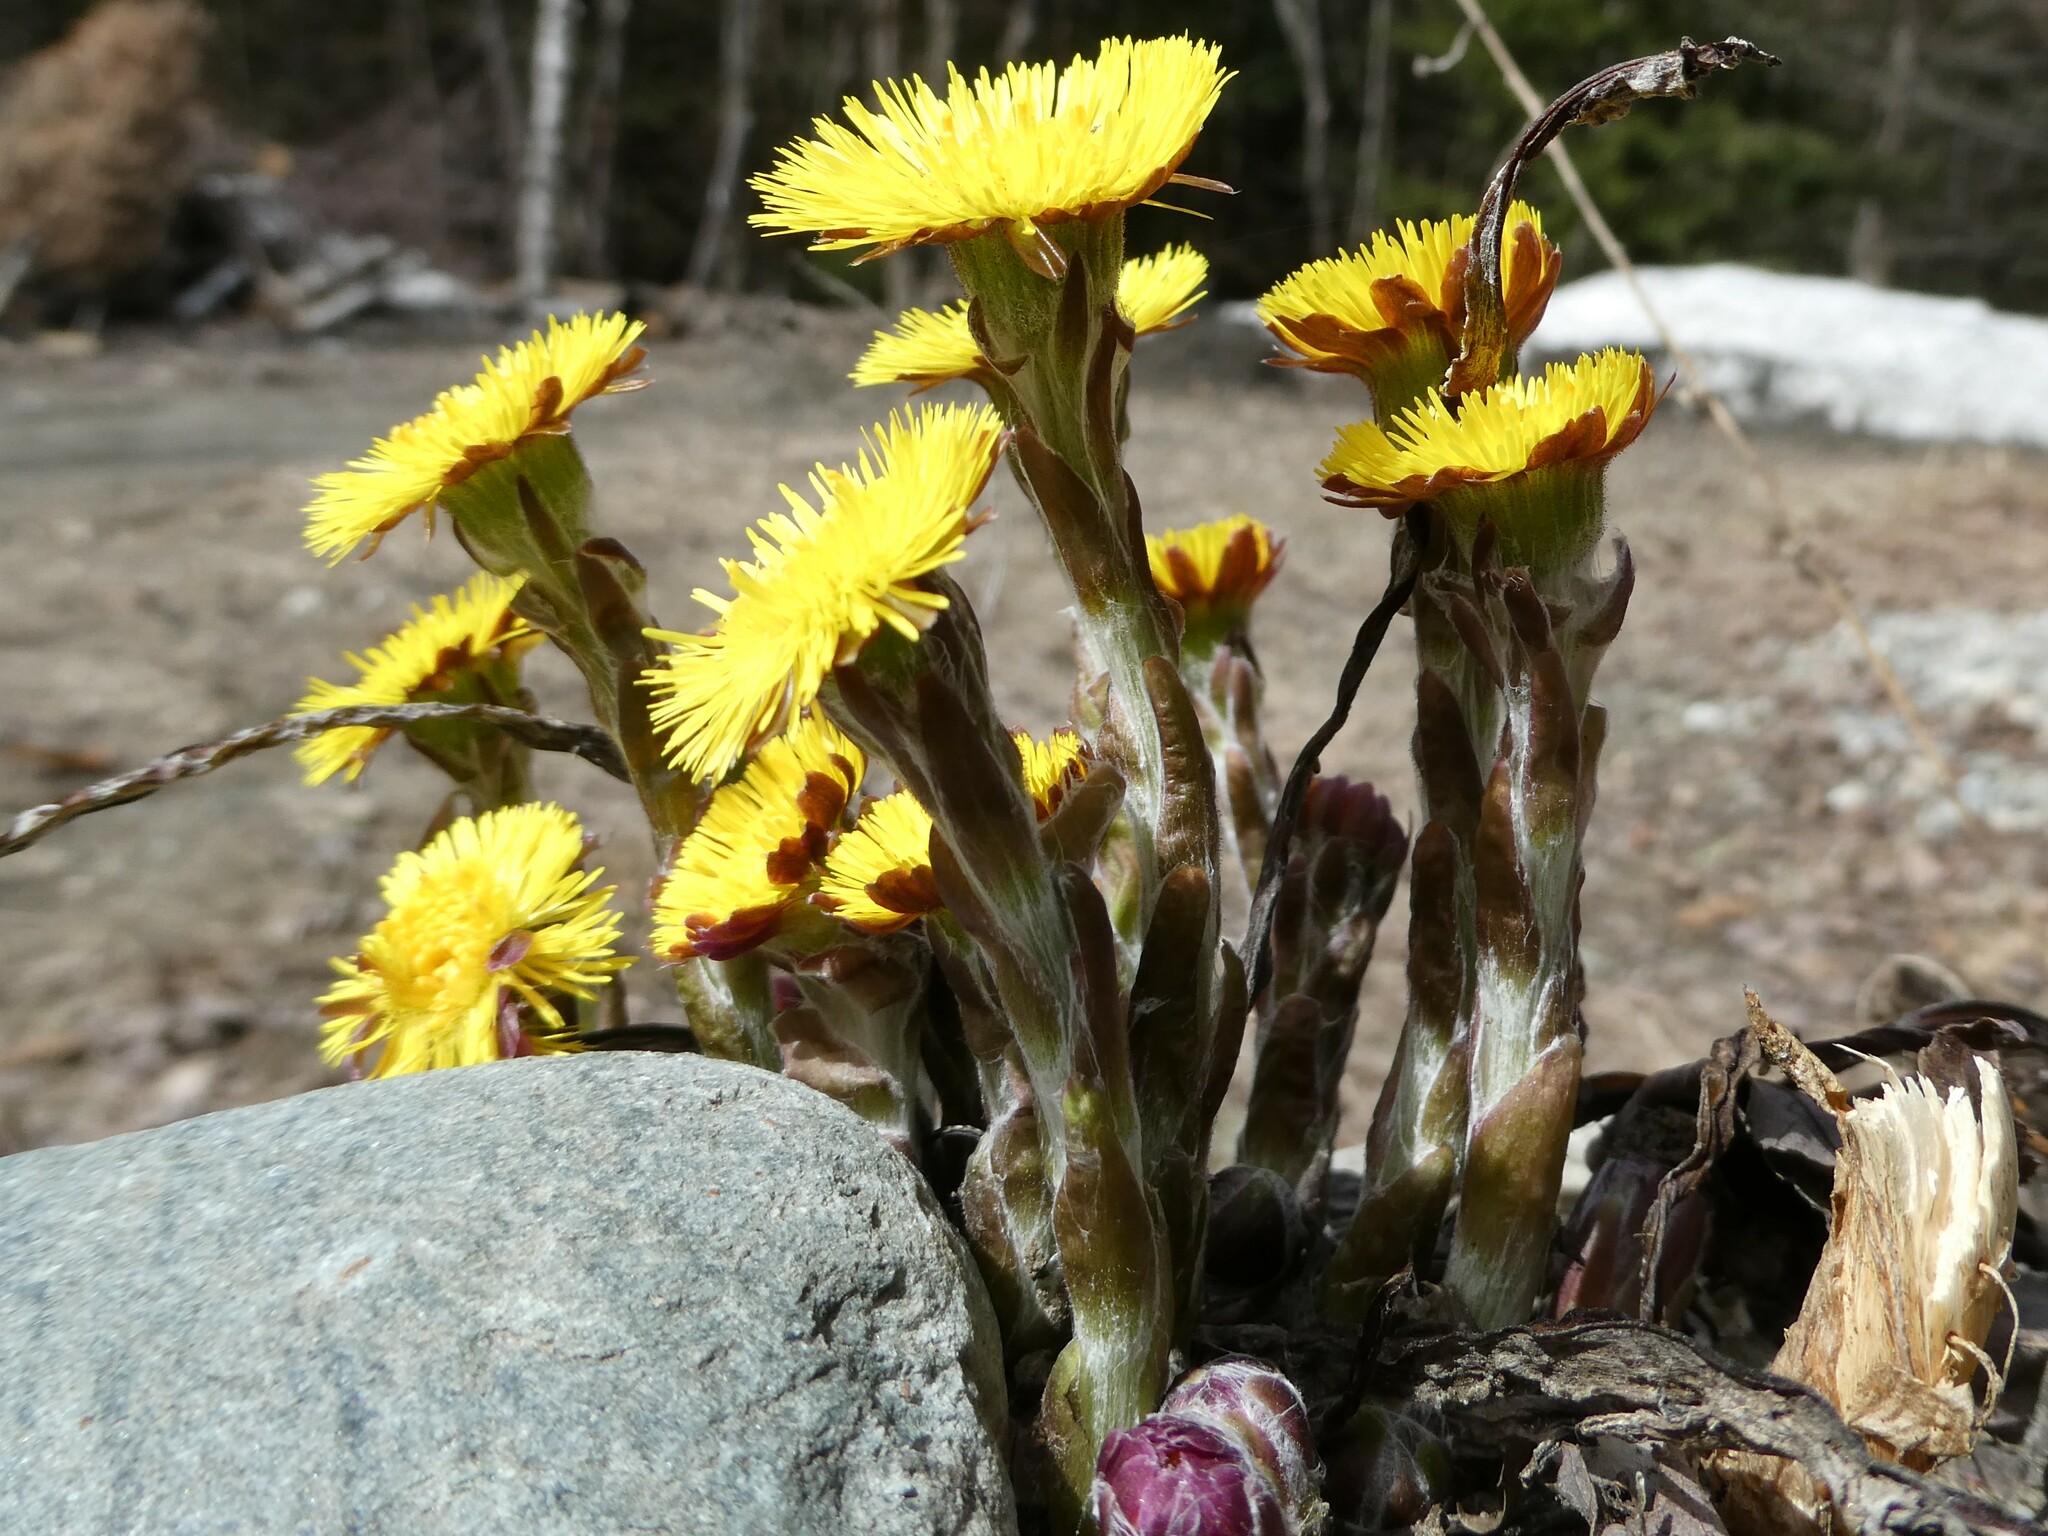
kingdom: Plantae
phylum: Tracheophyta
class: Magnoliopsida
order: Asterales
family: Asteraceae
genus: Tussilago
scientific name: Tussilago farfara
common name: Coltsfoot
